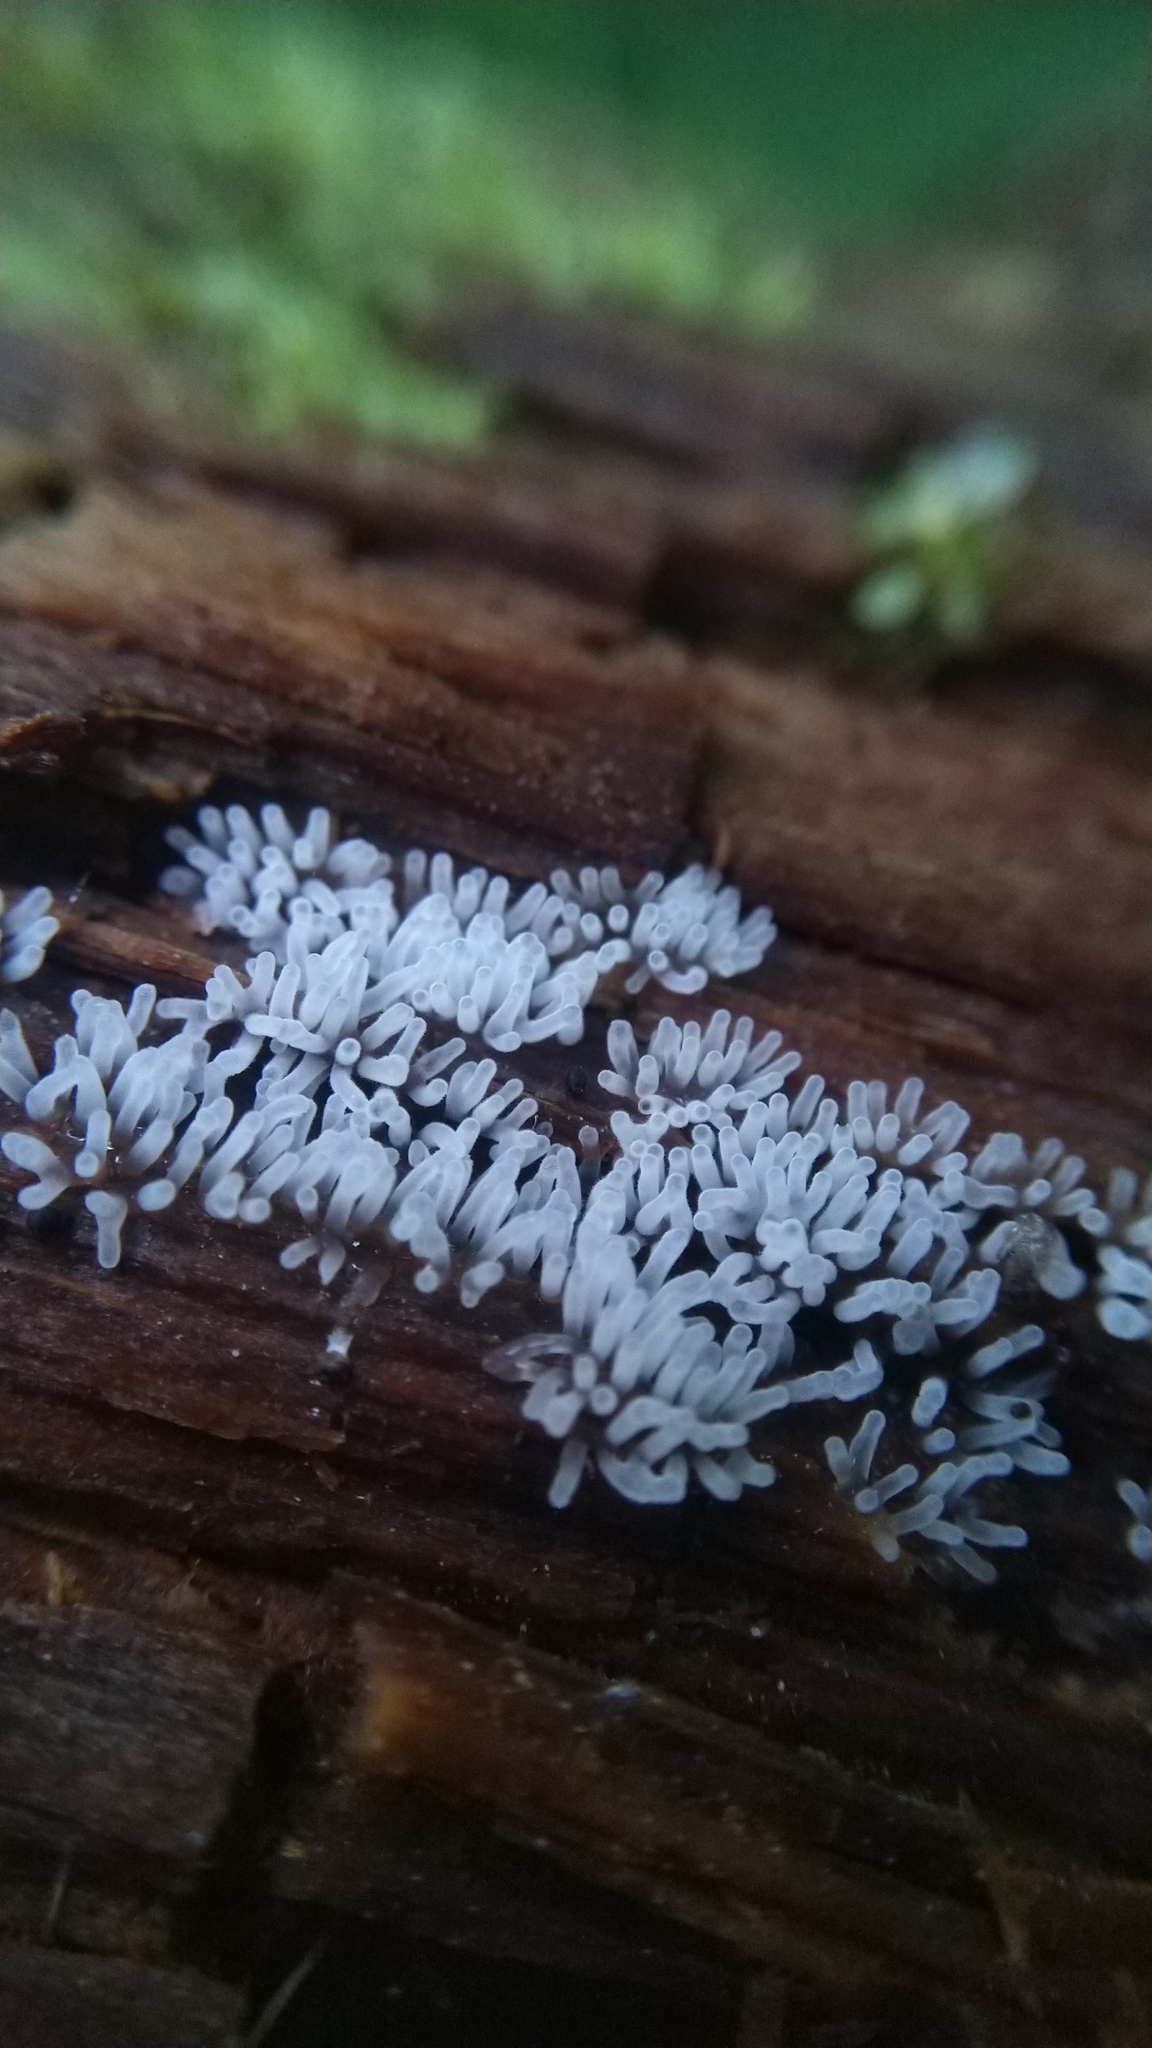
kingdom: Protozoa
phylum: Mycetozoa
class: Protosteliomycetes
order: Ceratiomyxales
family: Ceratiomyxaceae
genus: Ceratiomyxa
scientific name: Ceratiomyxa fruticulosa
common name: Honeycomb coral slime mold
